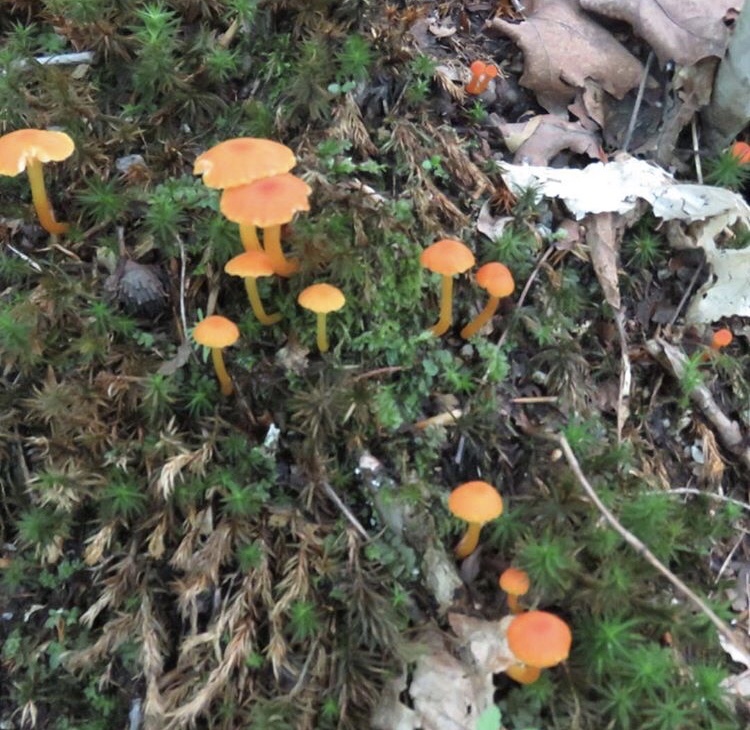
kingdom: Fungi
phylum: Basidiomycota
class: Agaricomycetes
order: Hymenochaetales
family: Rickenellaceae
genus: Rickenella
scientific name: Rickenella fibula
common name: Orange mosscap
